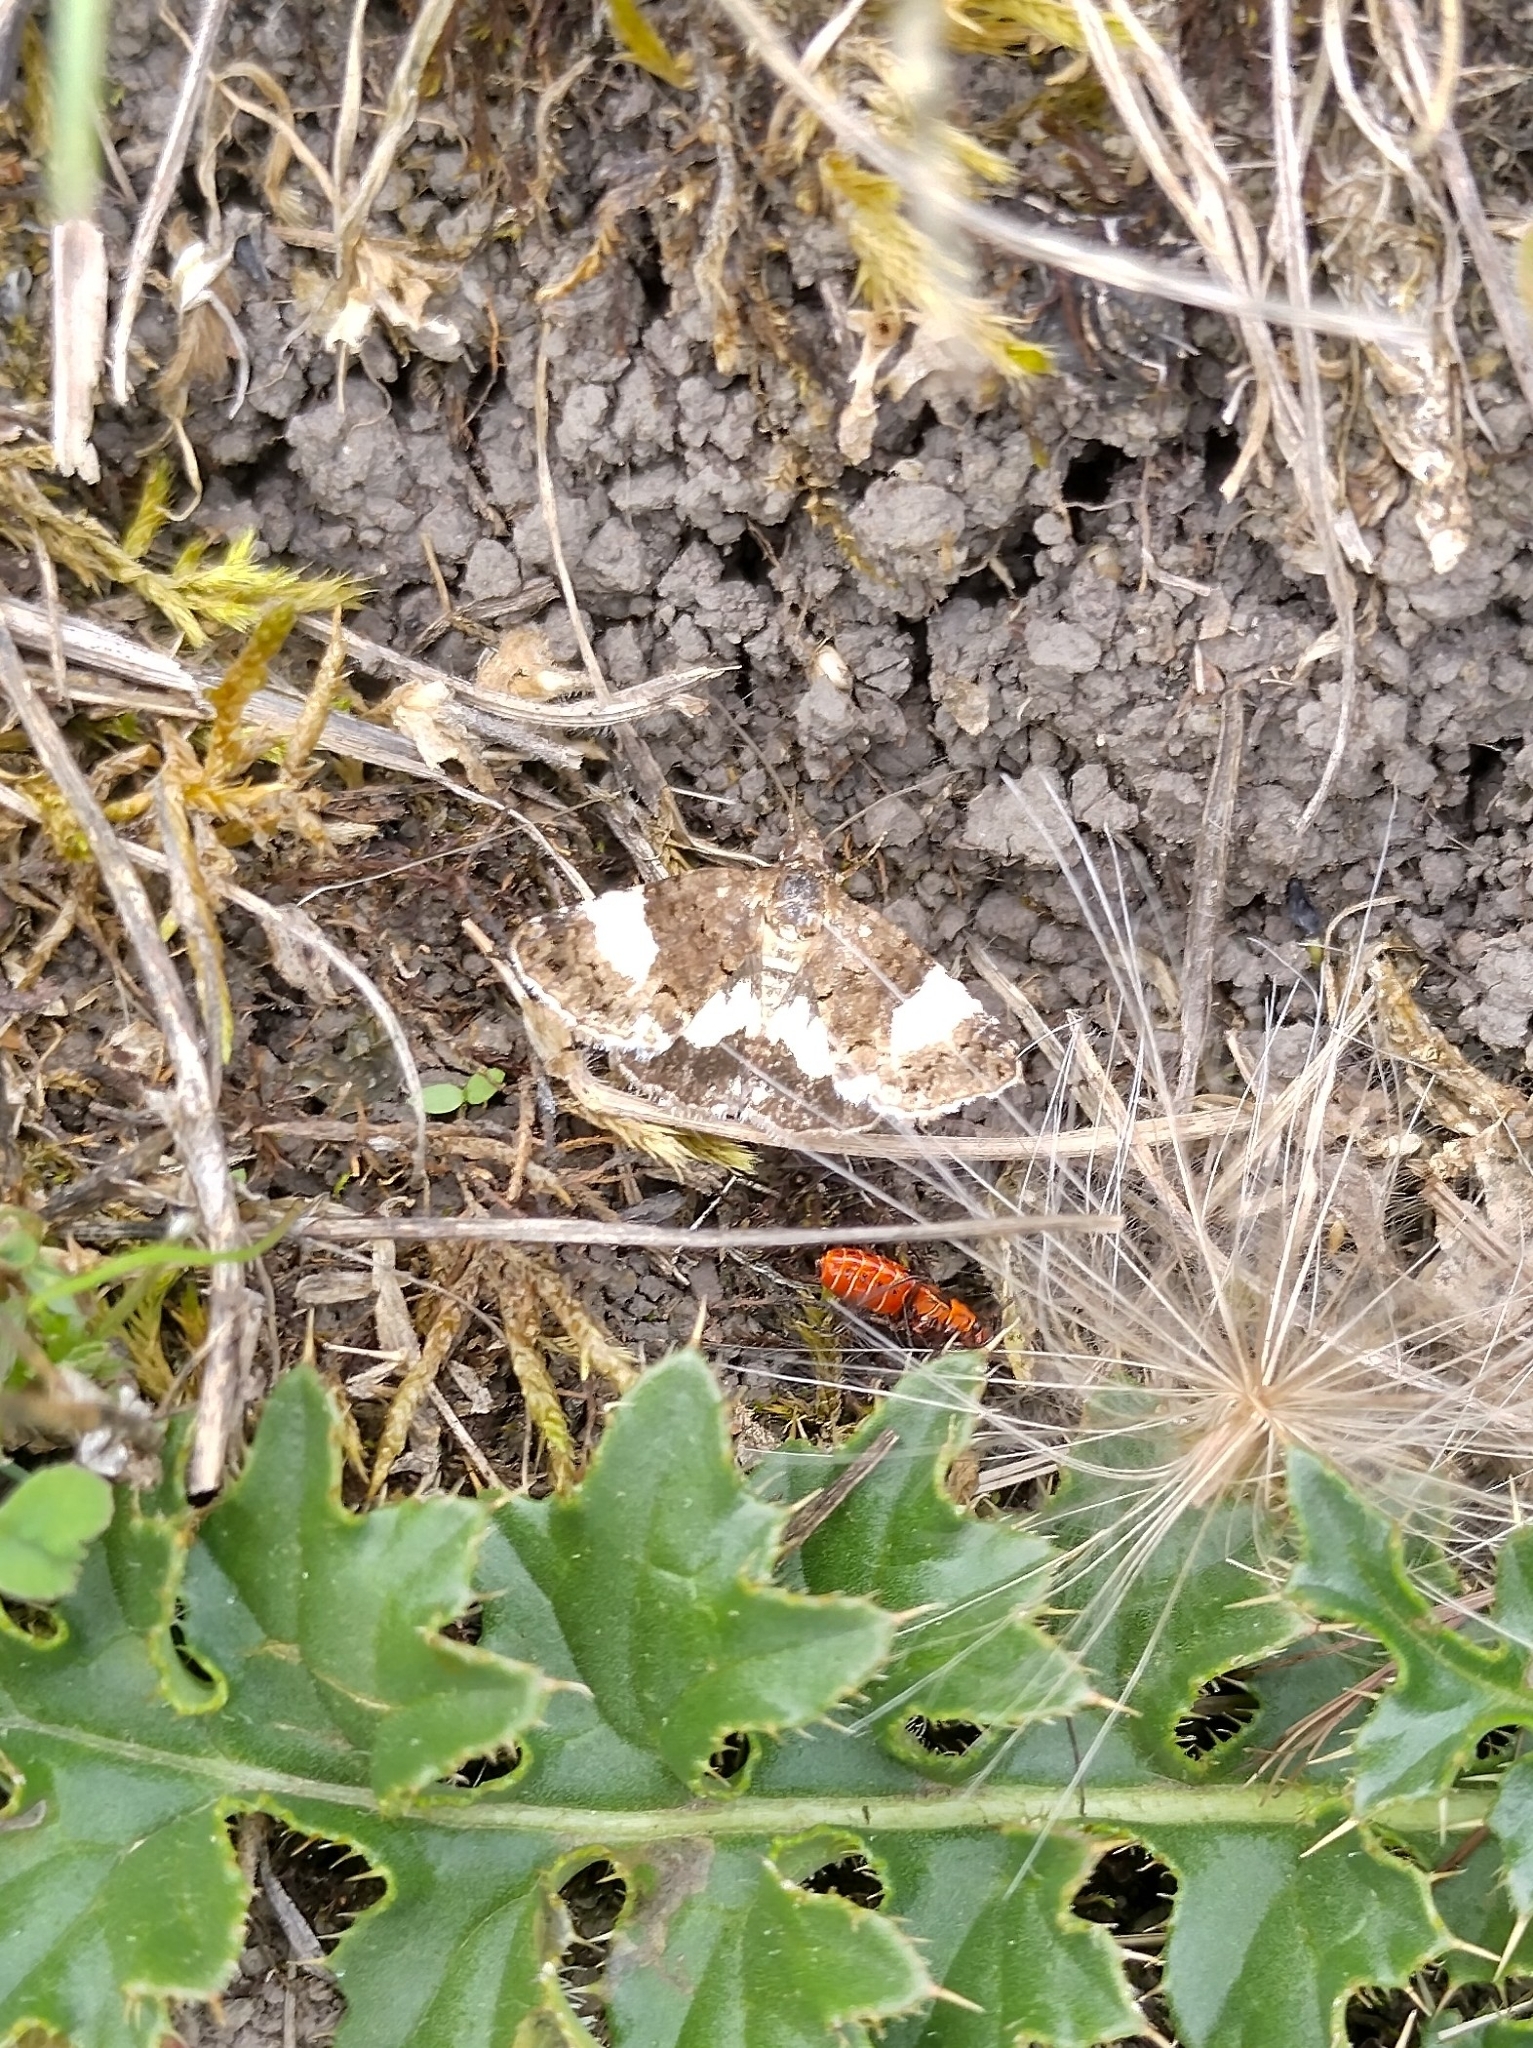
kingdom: Animalia
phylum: Arthropoda
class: Insecta
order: Lepidoptera
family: Erebidae
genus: Tyta
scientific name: Tyta luctuosa
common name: Four-spotted
